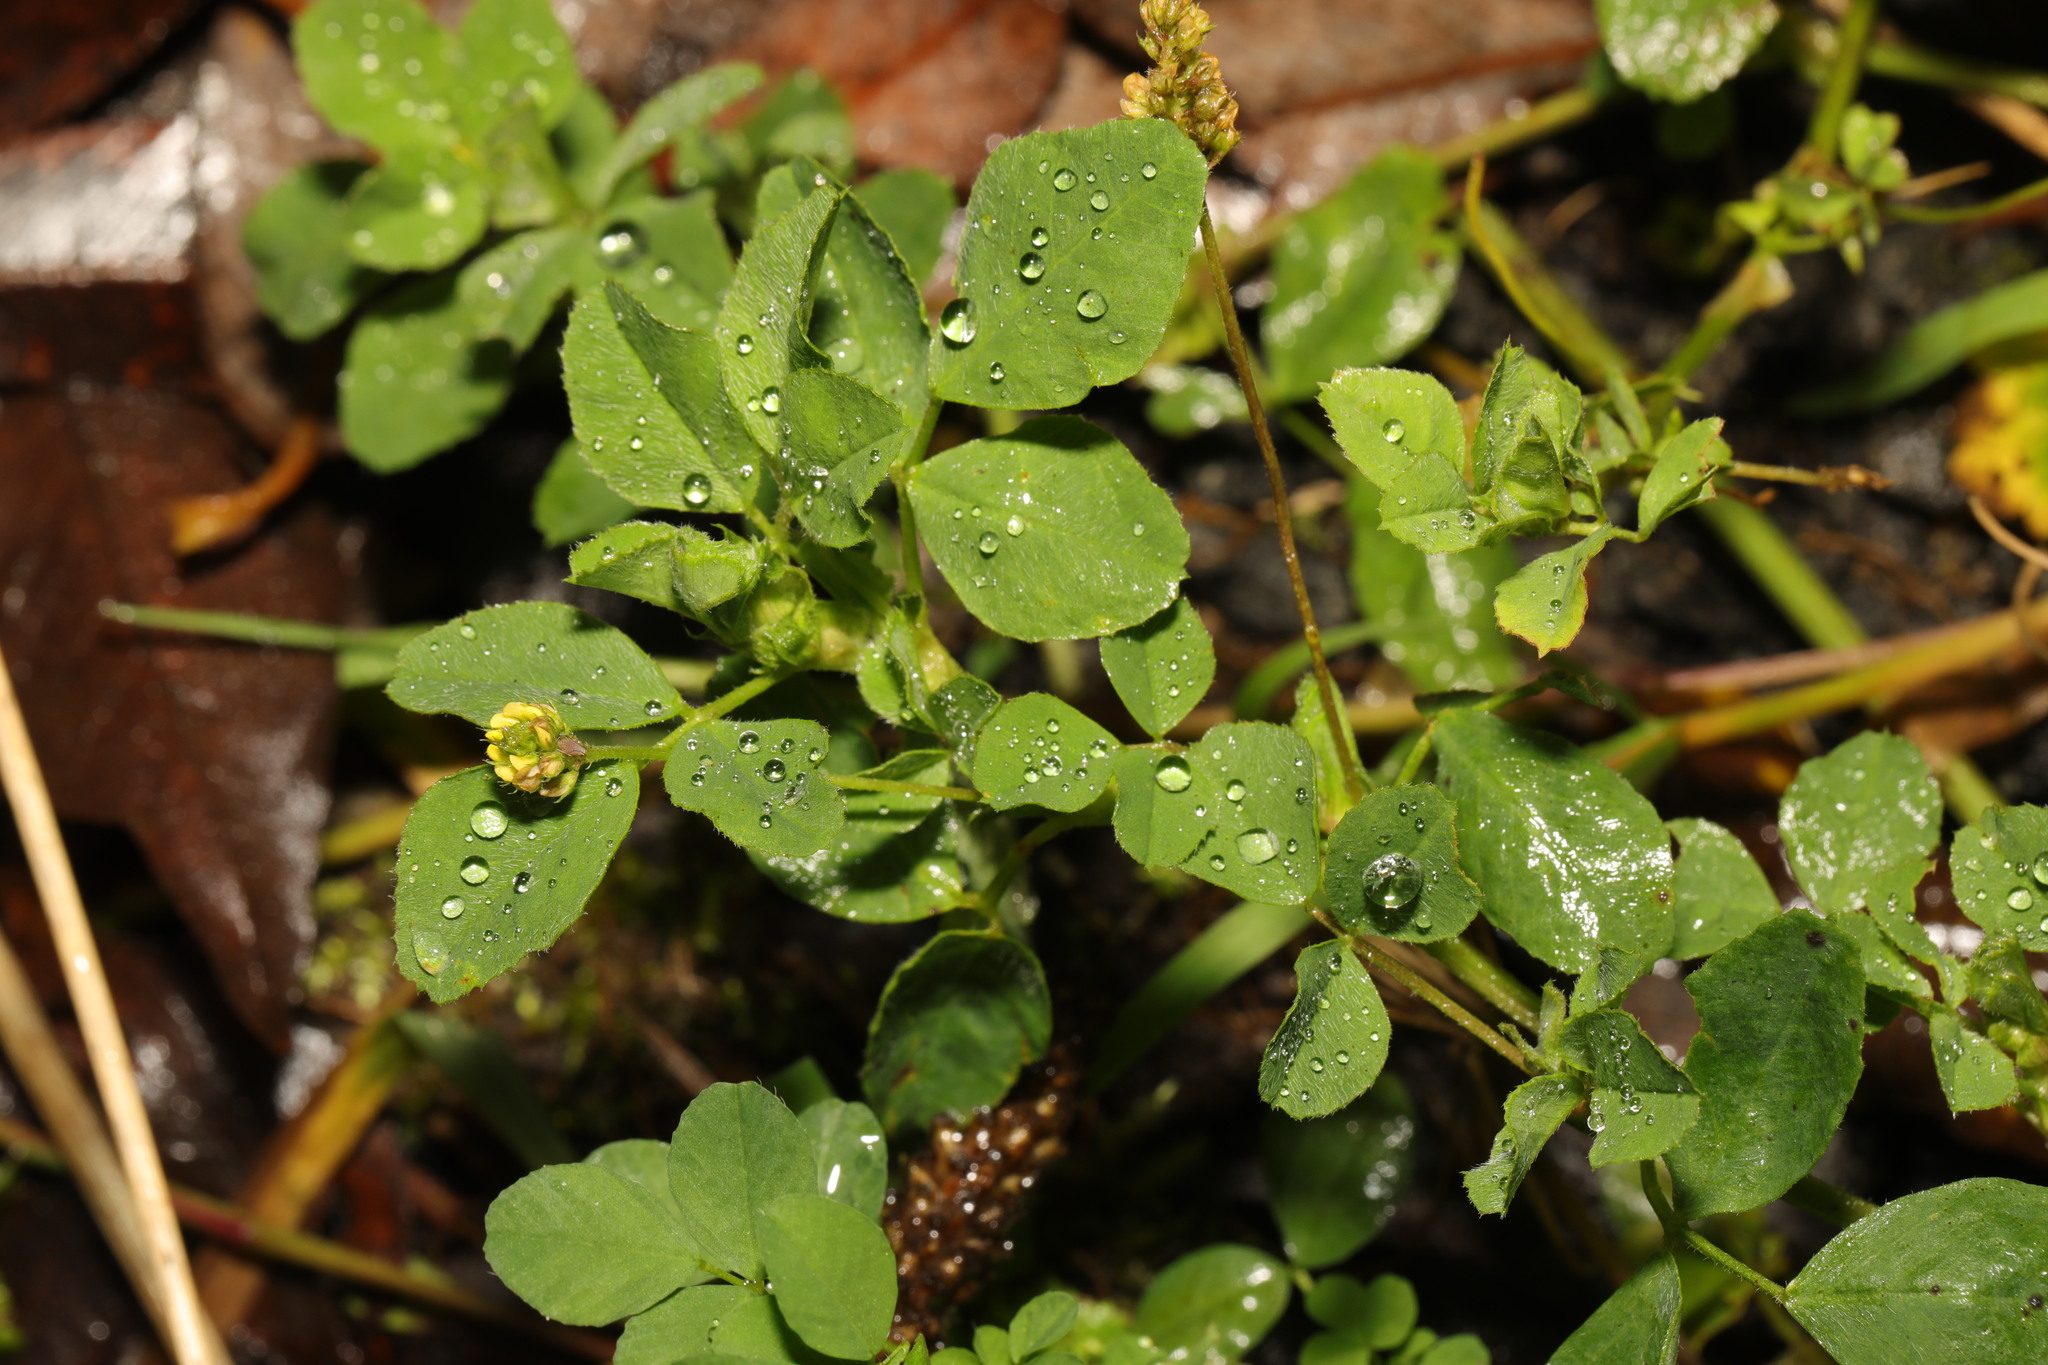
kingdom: Plantae
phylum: Tracheophyta
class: Magnoliopsida
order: Fabales
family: Fabaceae
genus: Medicago
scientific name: Medicago lupulina
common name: Black medick
